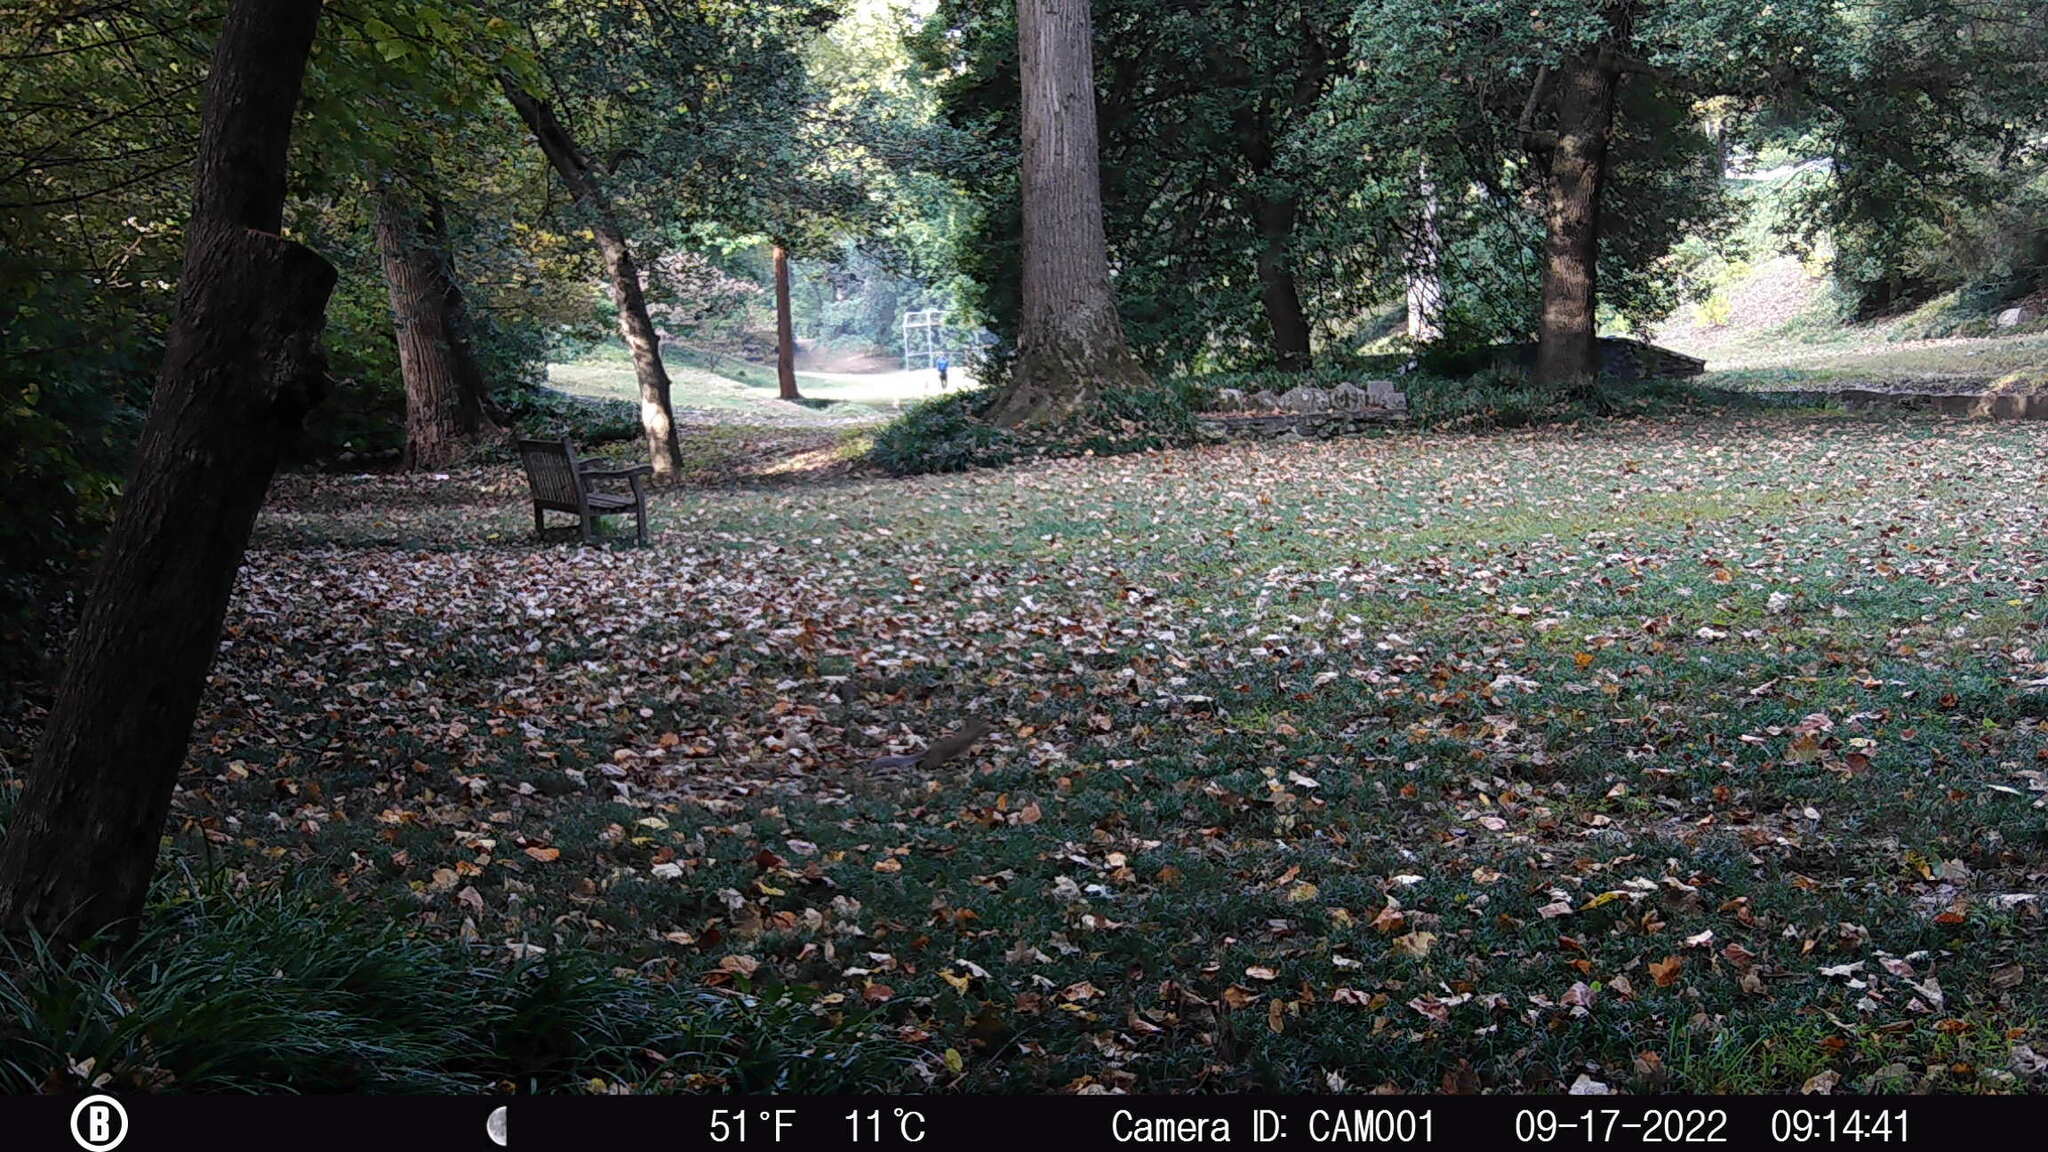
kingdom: Animalia
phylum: Chordata
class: Mammalia
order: Rodentia
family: Sciuridae
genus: Sciurus
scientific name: Sciurus carolinensis
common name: Eastern gray squirrel
